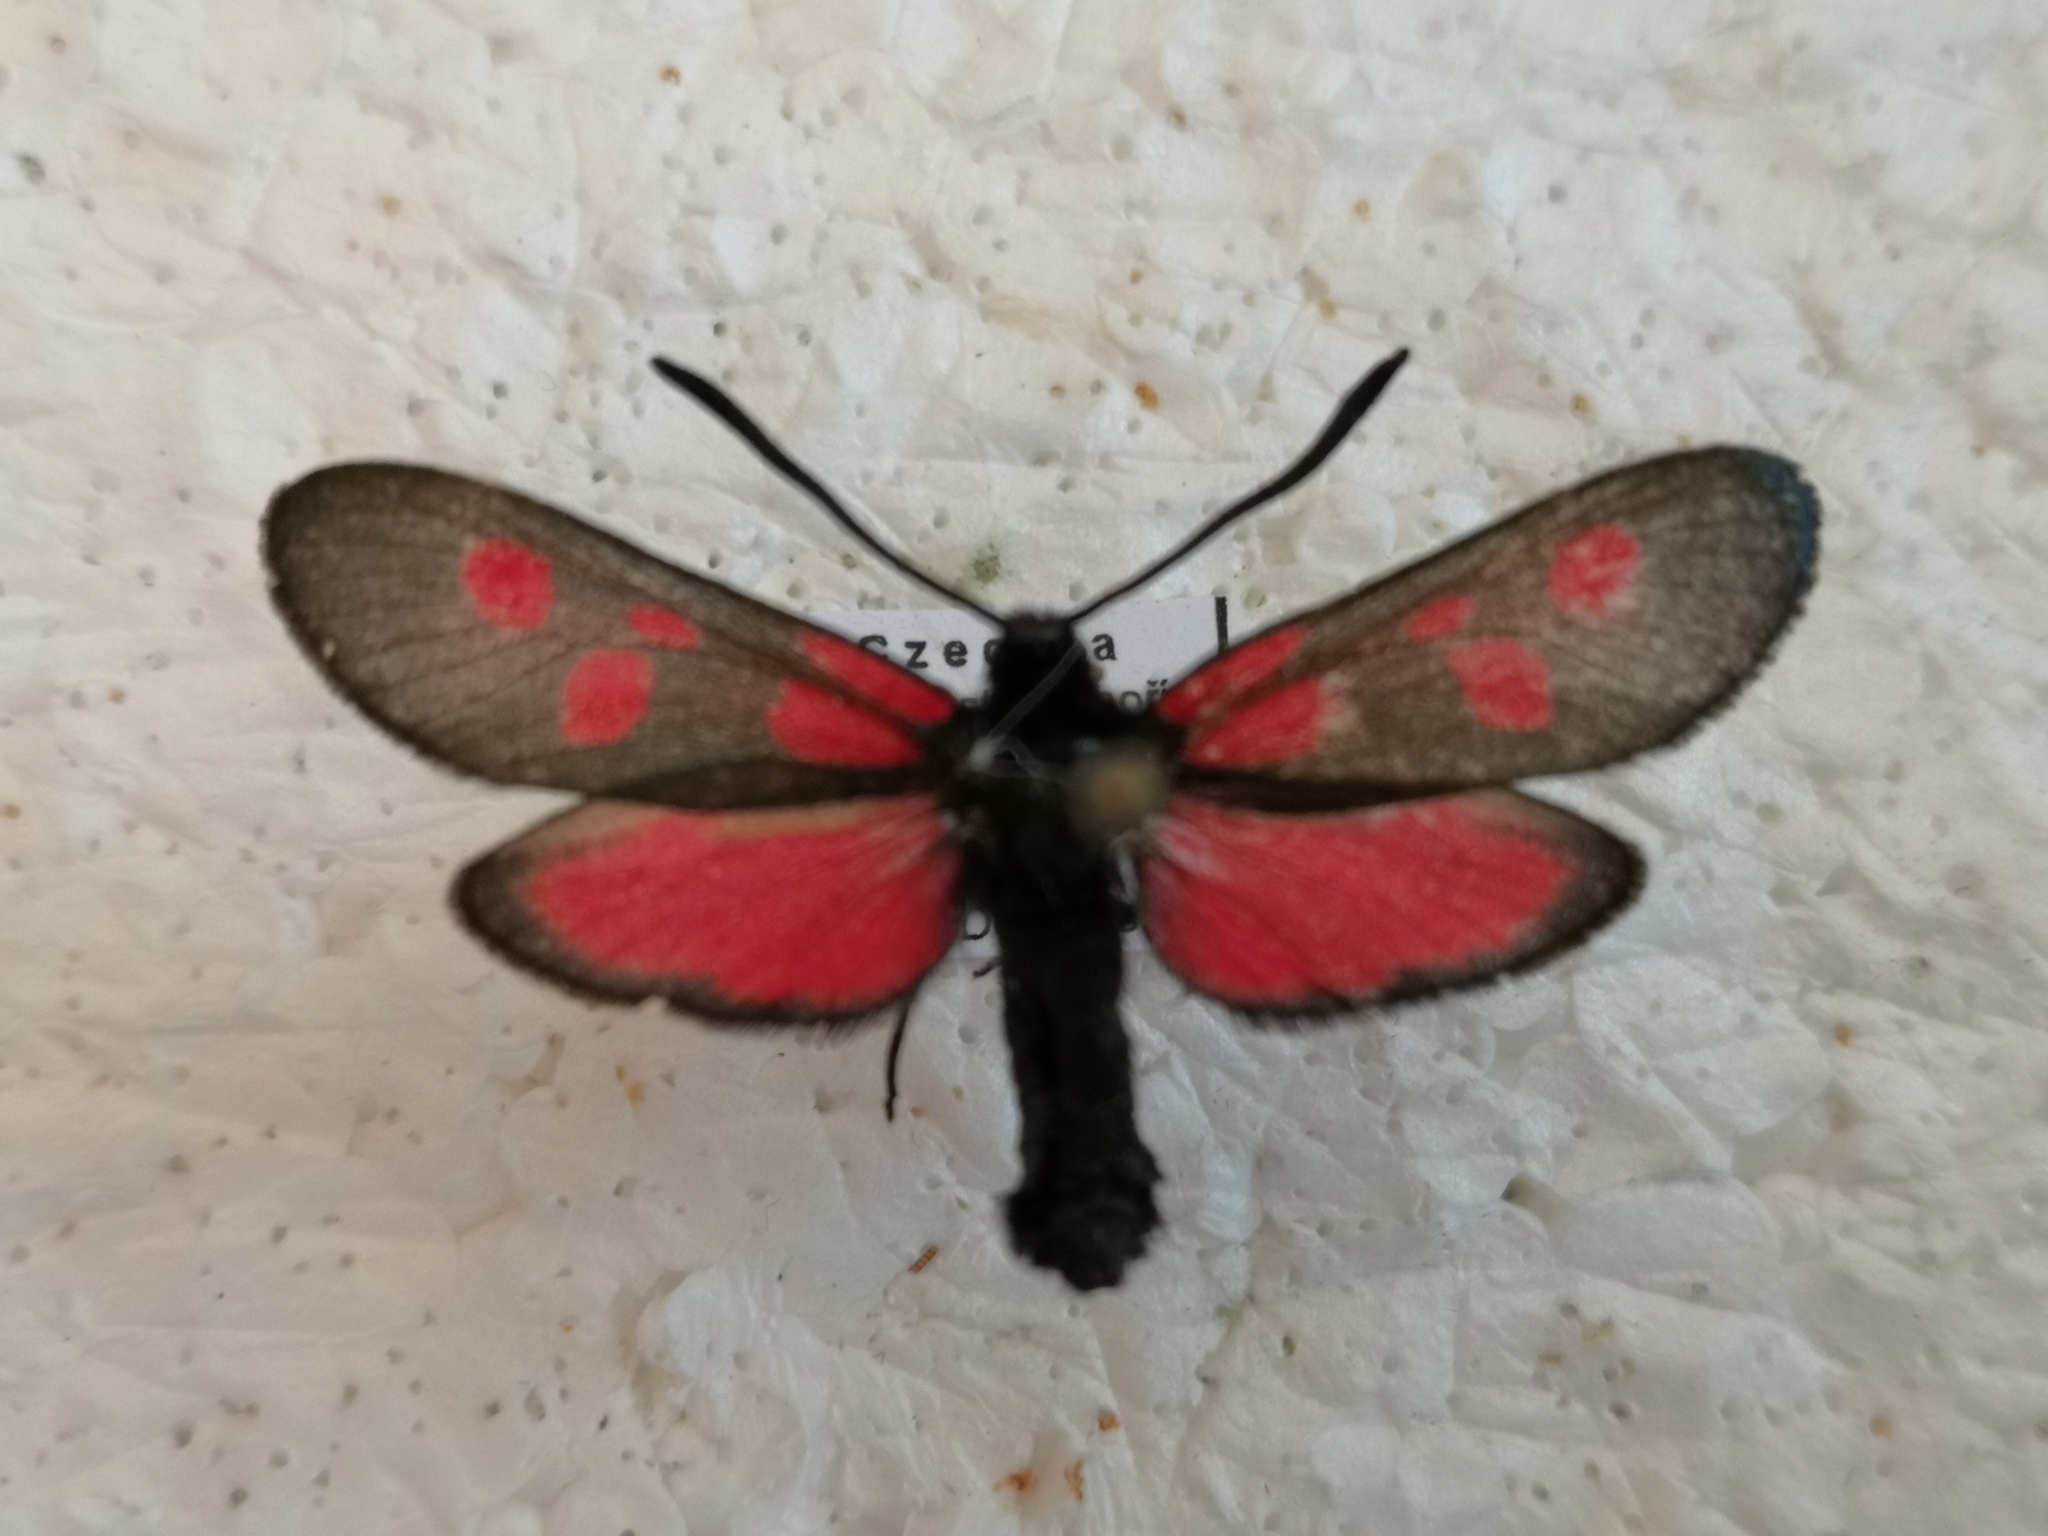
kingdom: Animalia
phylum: Arthropoda
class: Insecta
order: Lepidoptera
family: Zygaenidae
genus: Zygaena
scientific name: Zygaena viciae
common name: New forest burnet
